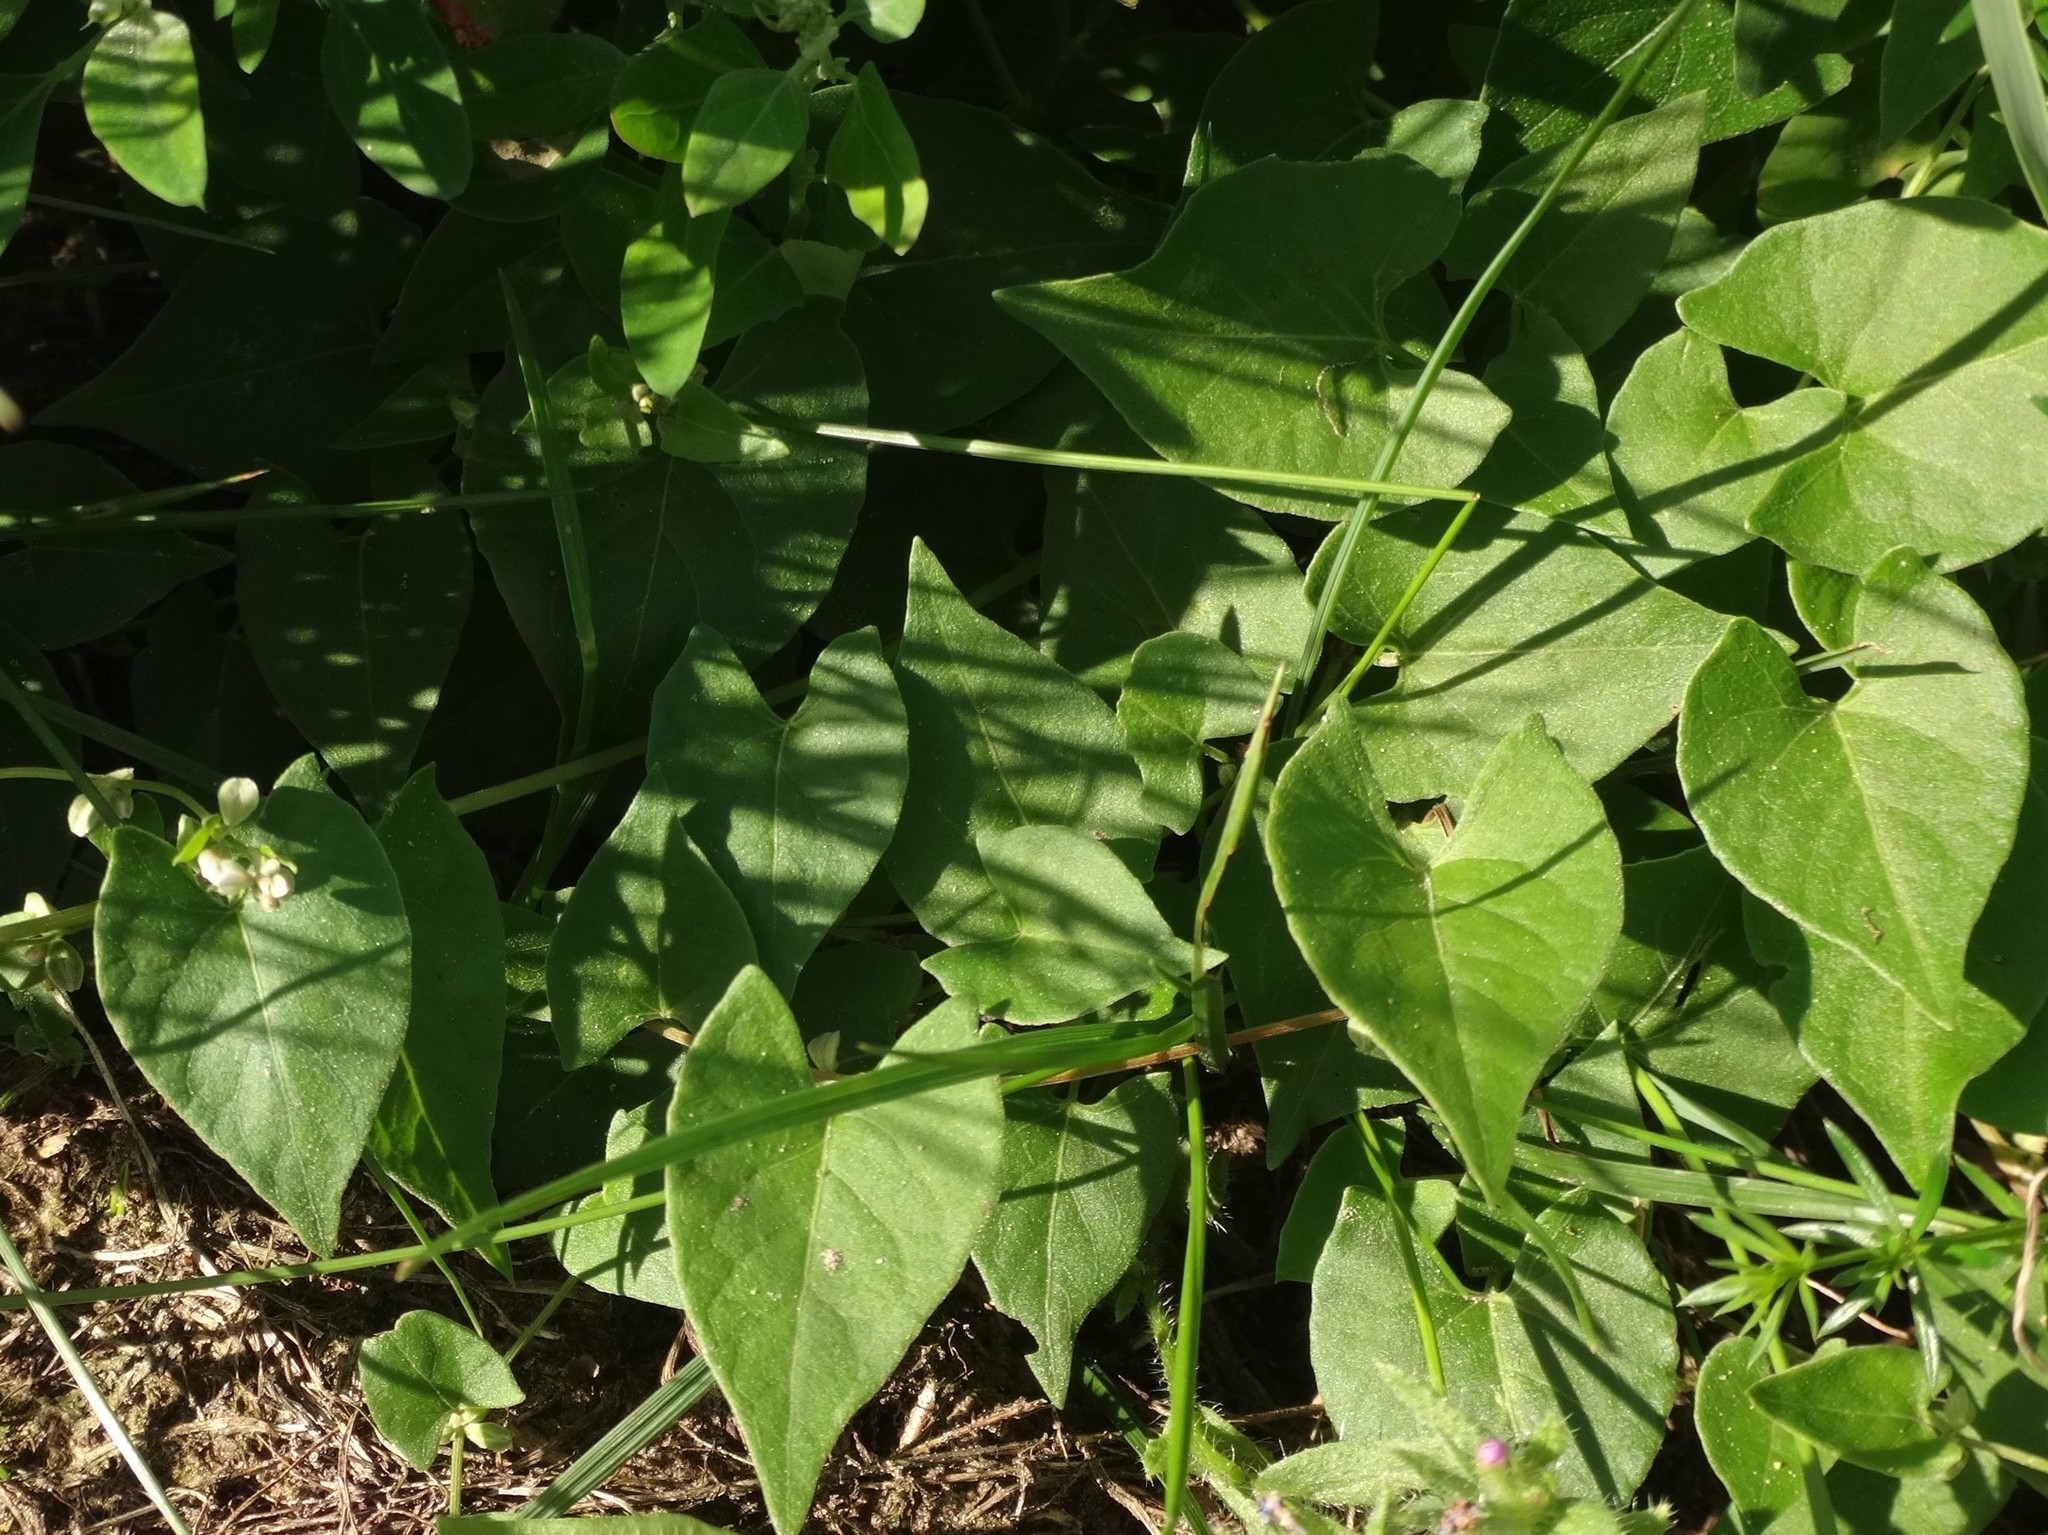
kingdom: Plantae
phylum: Tracheophyta
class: Magnoliopsida
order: Caryophyllales
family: Polygonaceae
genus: Fallopia
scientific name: Fallopia convolvulus
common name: Black bindweed
